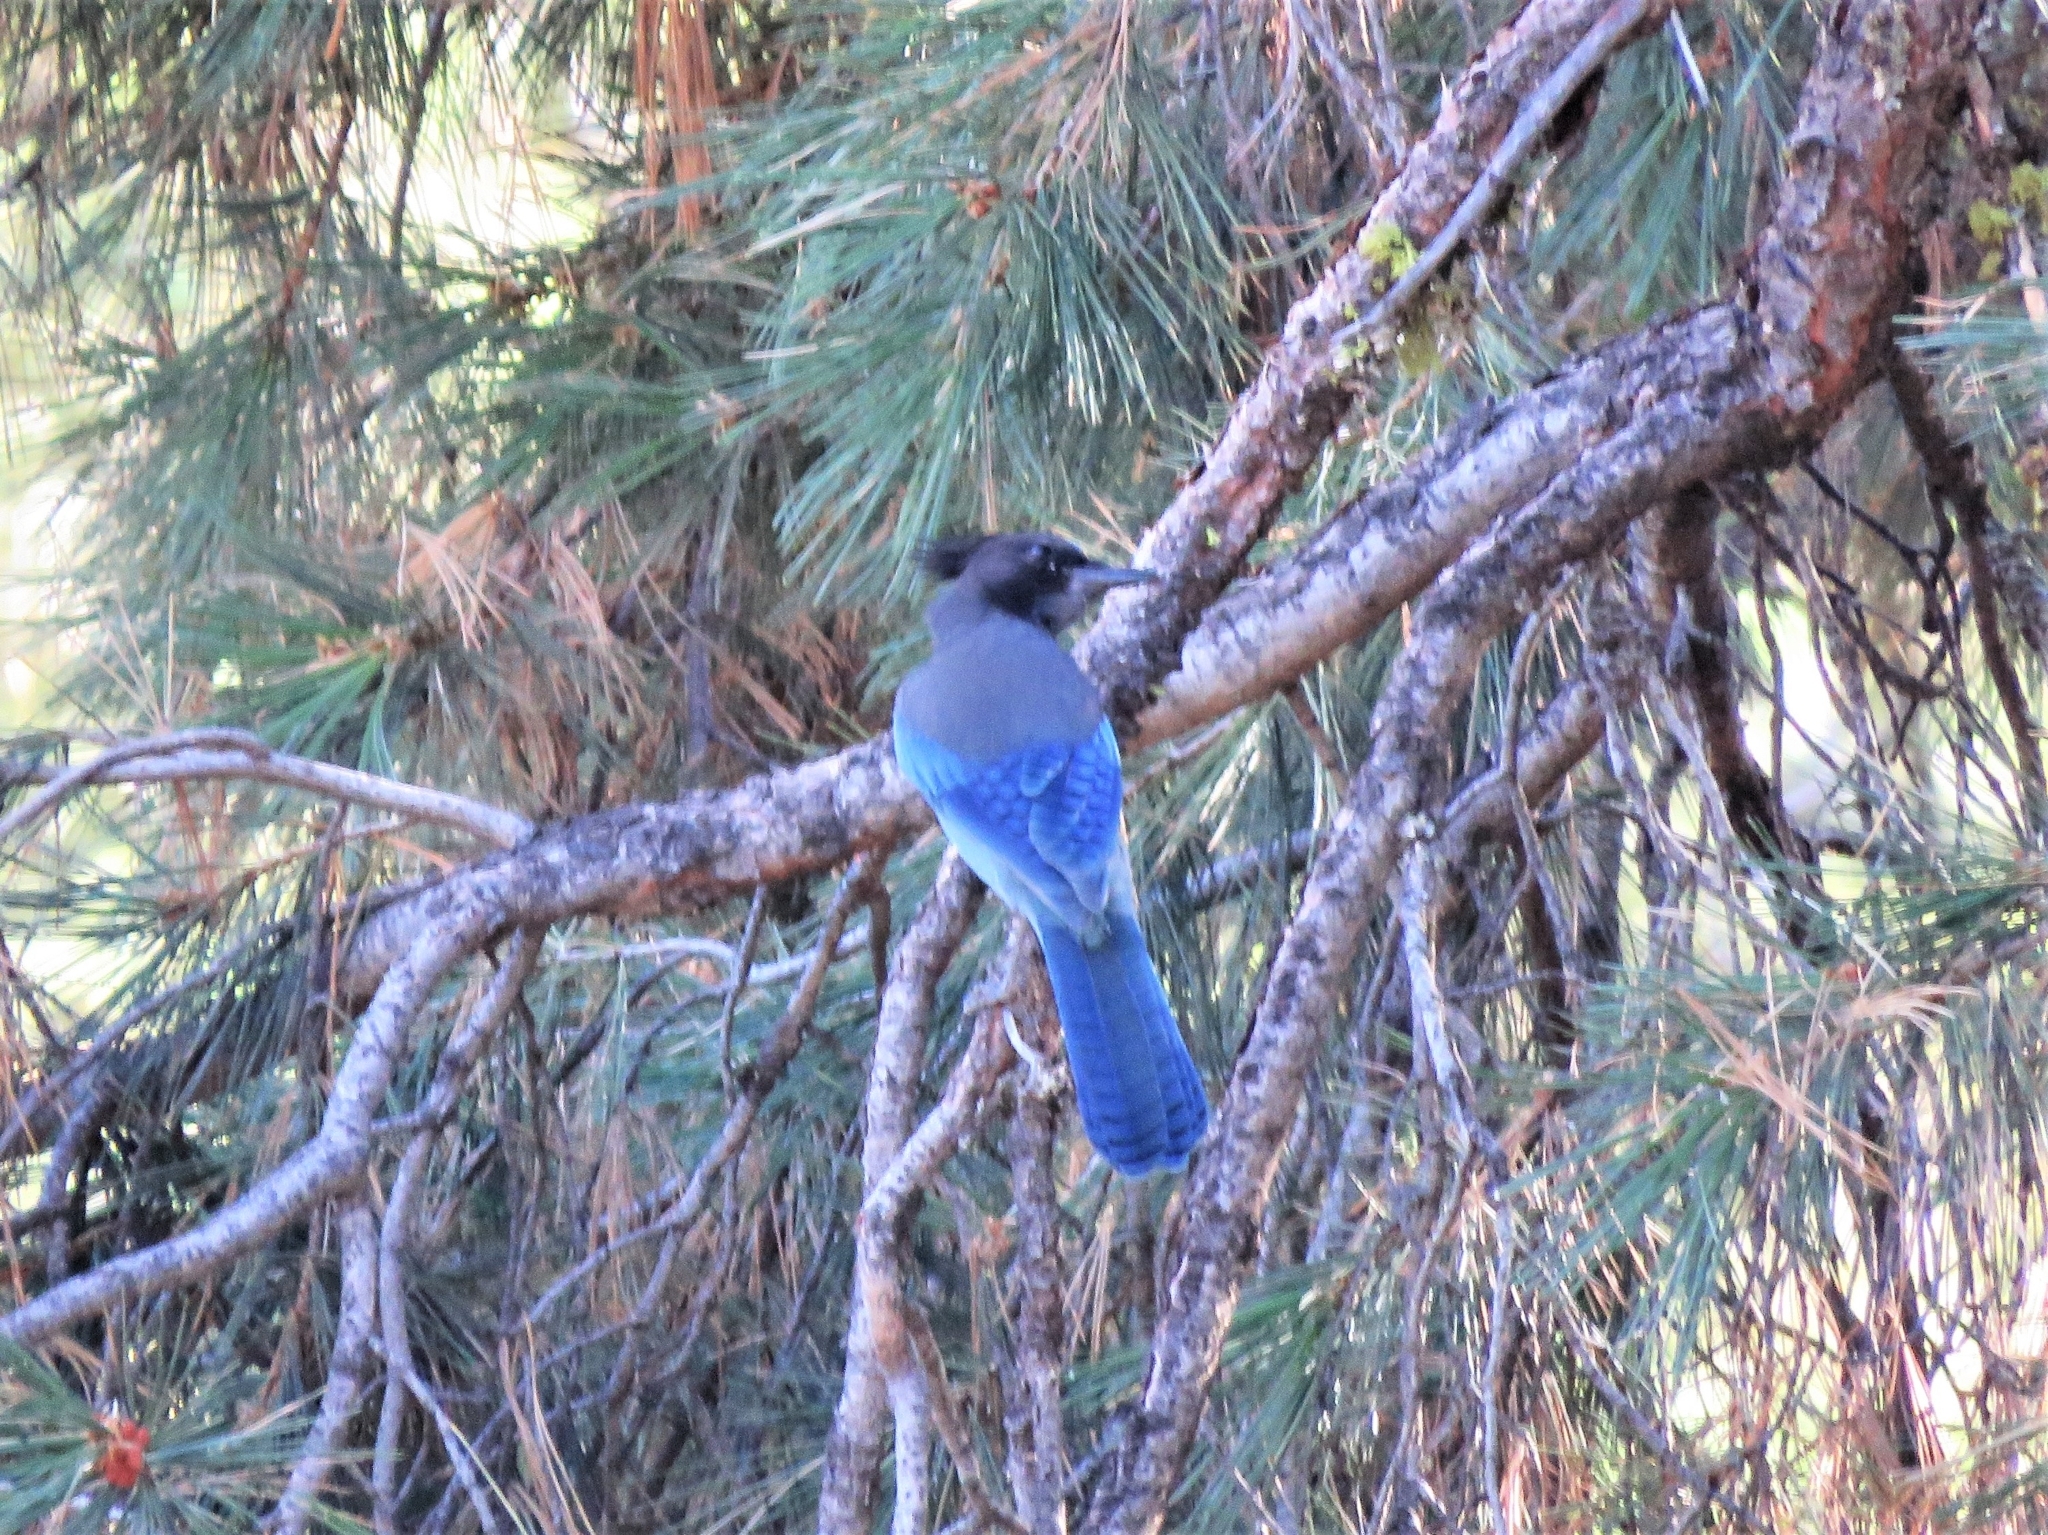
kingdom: Animalia
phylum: Chordata
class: Aves
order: Passeriformes
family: Corvidae
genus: Cyanocitta
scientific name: Cyanocitta stelleri
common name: Steller's jay
